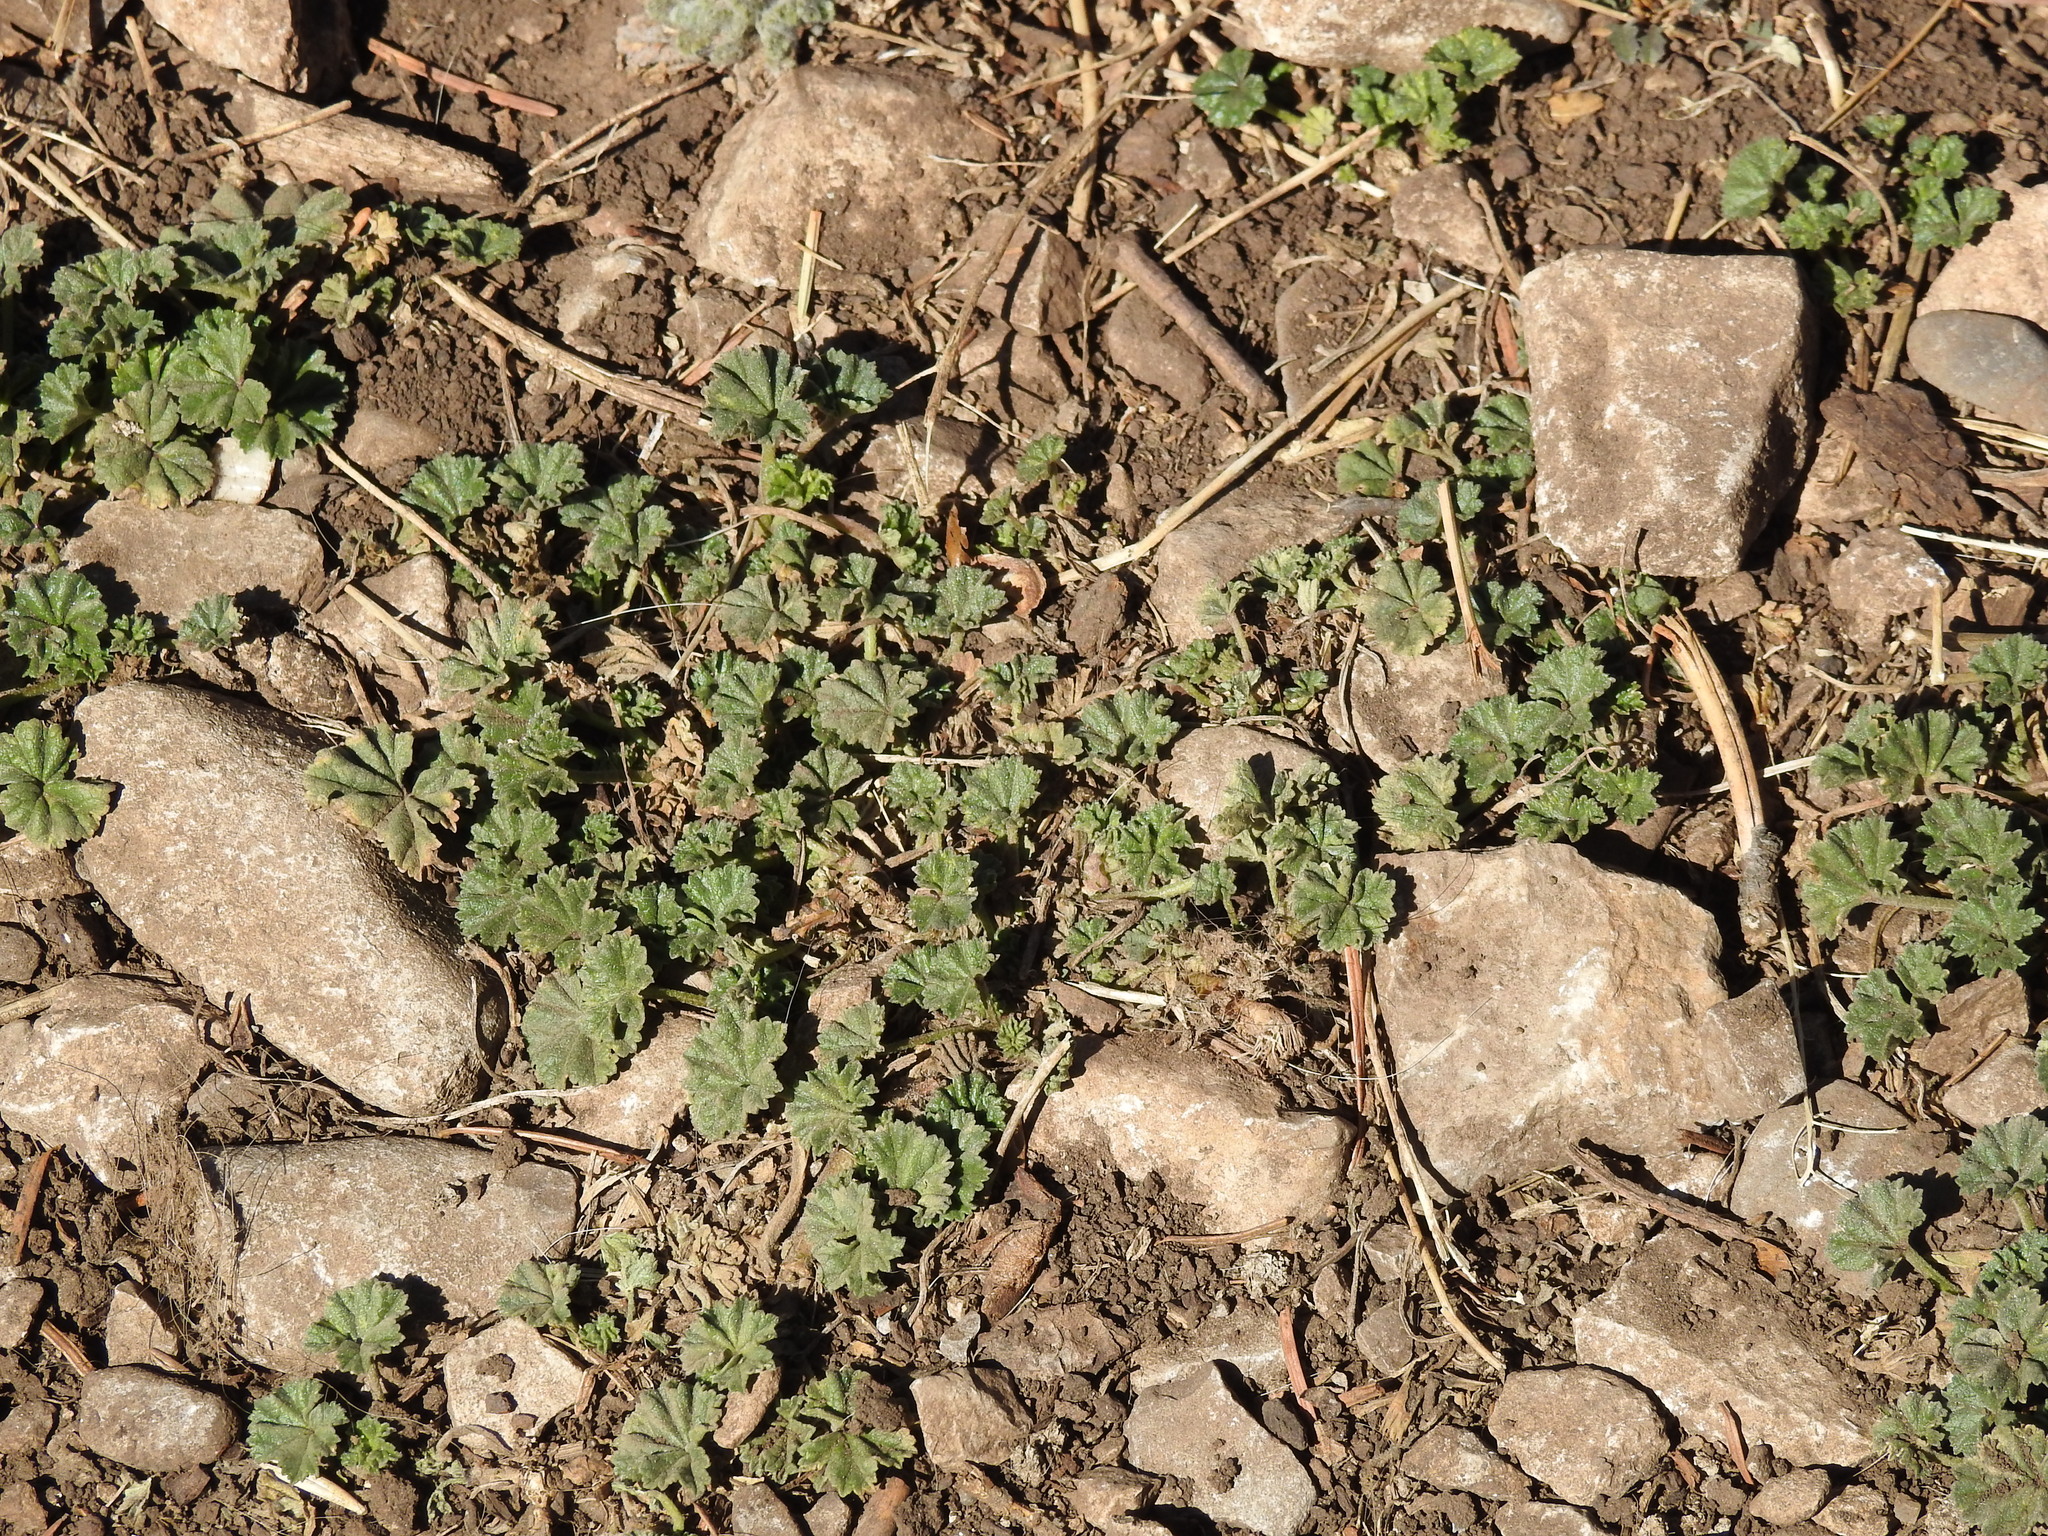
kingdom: Plantae
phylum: Tracheophyta
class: Magnoliopsida
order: Malvales
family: Malvaceae
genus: Malva
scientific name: Malva neglecta
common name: Common mallow
